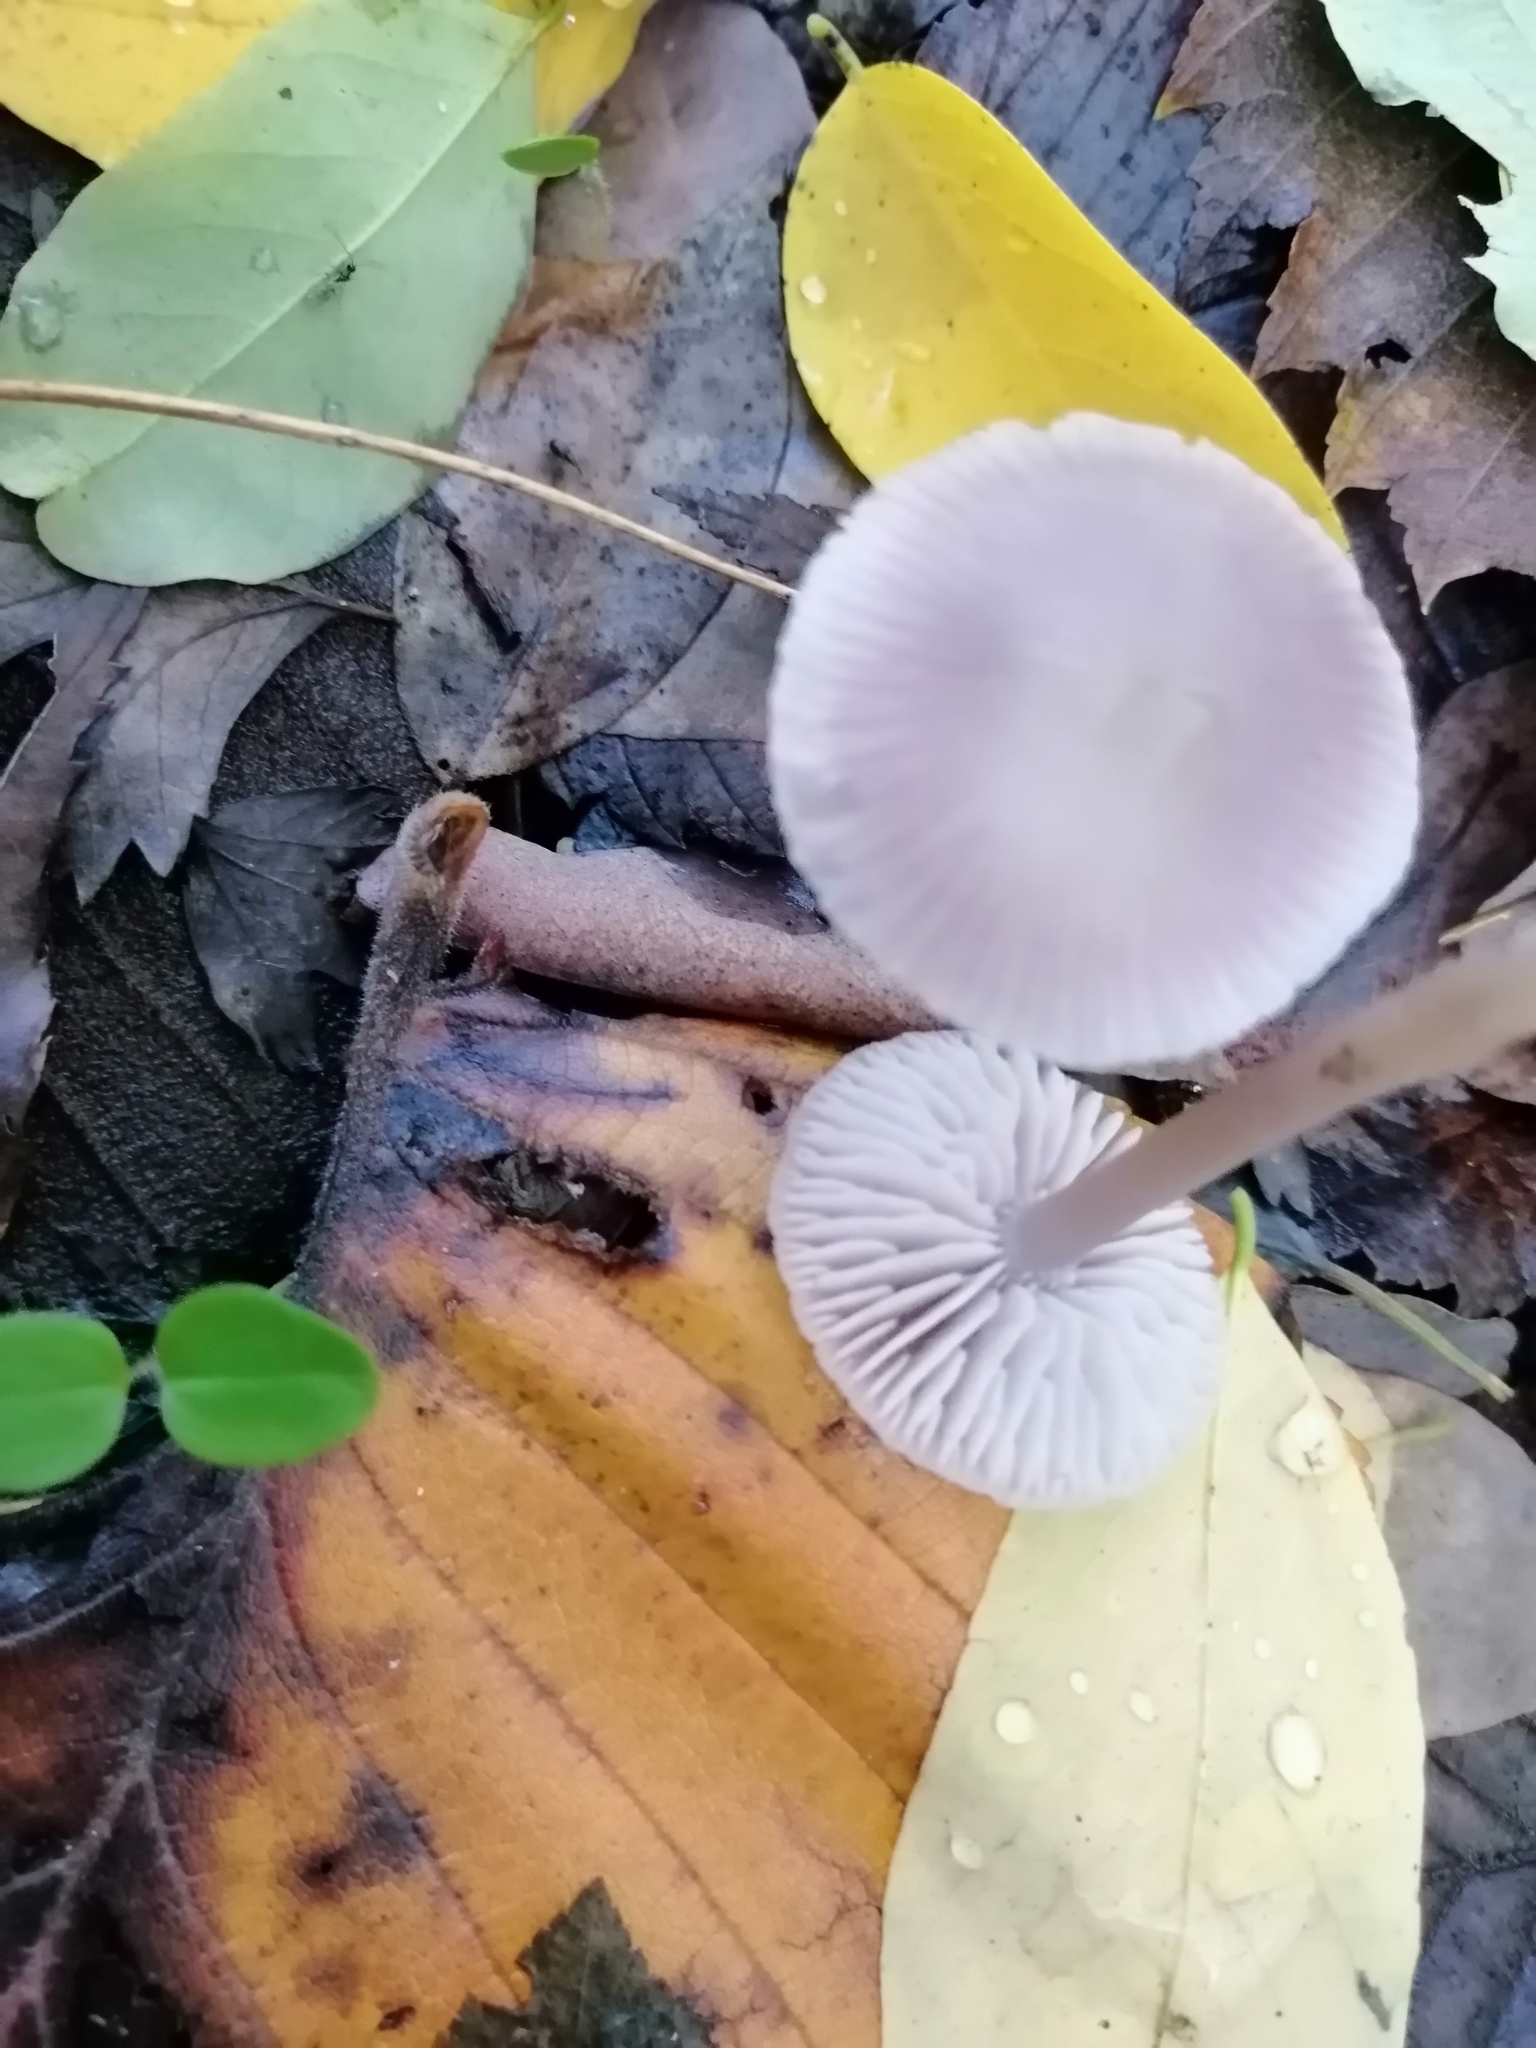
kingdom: Fungi
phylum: Basidiomycota
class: Agaricomycetes
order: Agaricales
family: Mycenaceae
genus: Mycena
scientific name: Mycena pura
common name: Lilac bonnet
